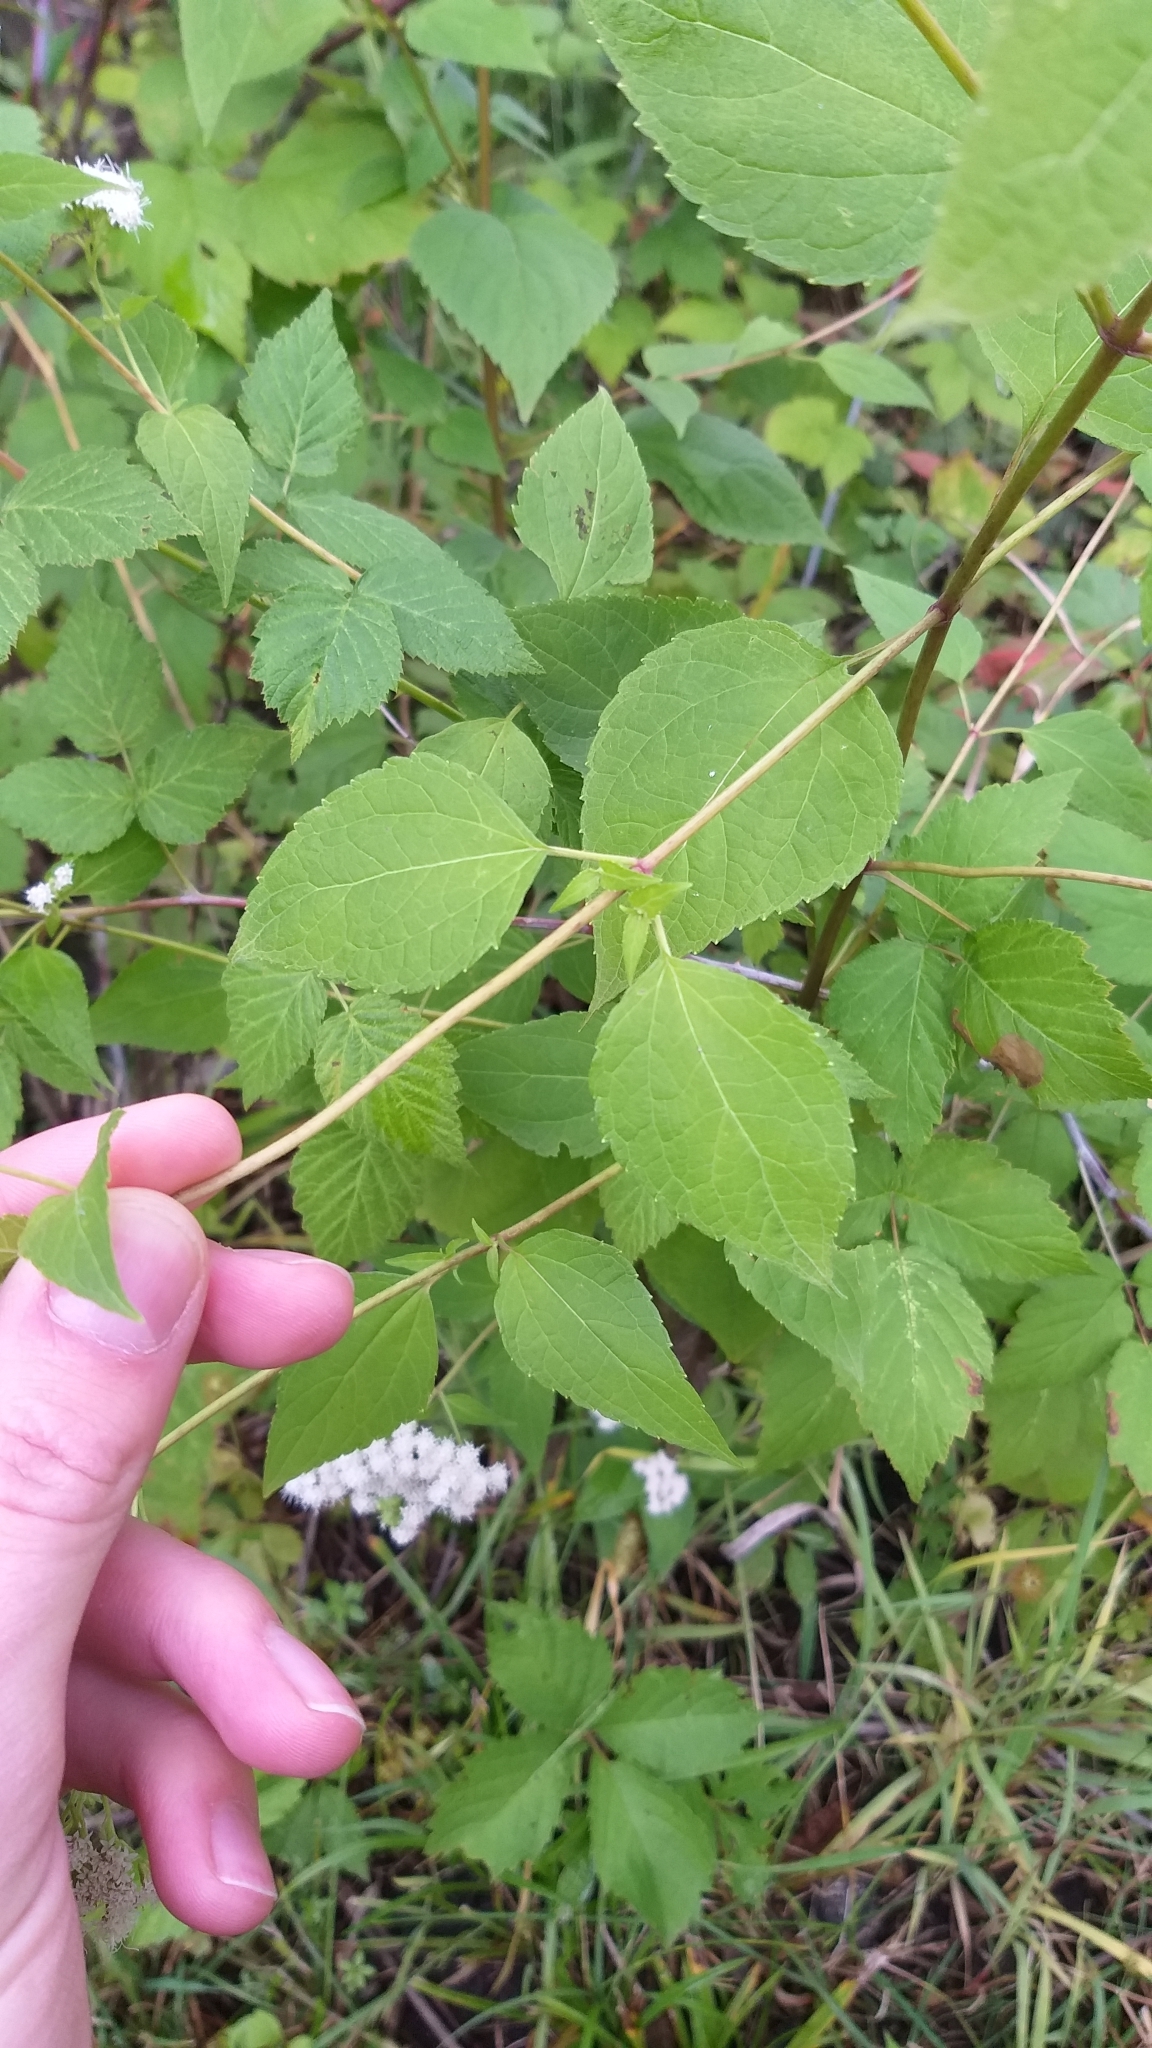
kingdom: Plantae
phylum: Tracheophyta
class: Magnoliopsida
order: Asterales
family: Asteraceae
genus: Ageratina
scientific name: Ageratina altissima
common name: White snakeroot
